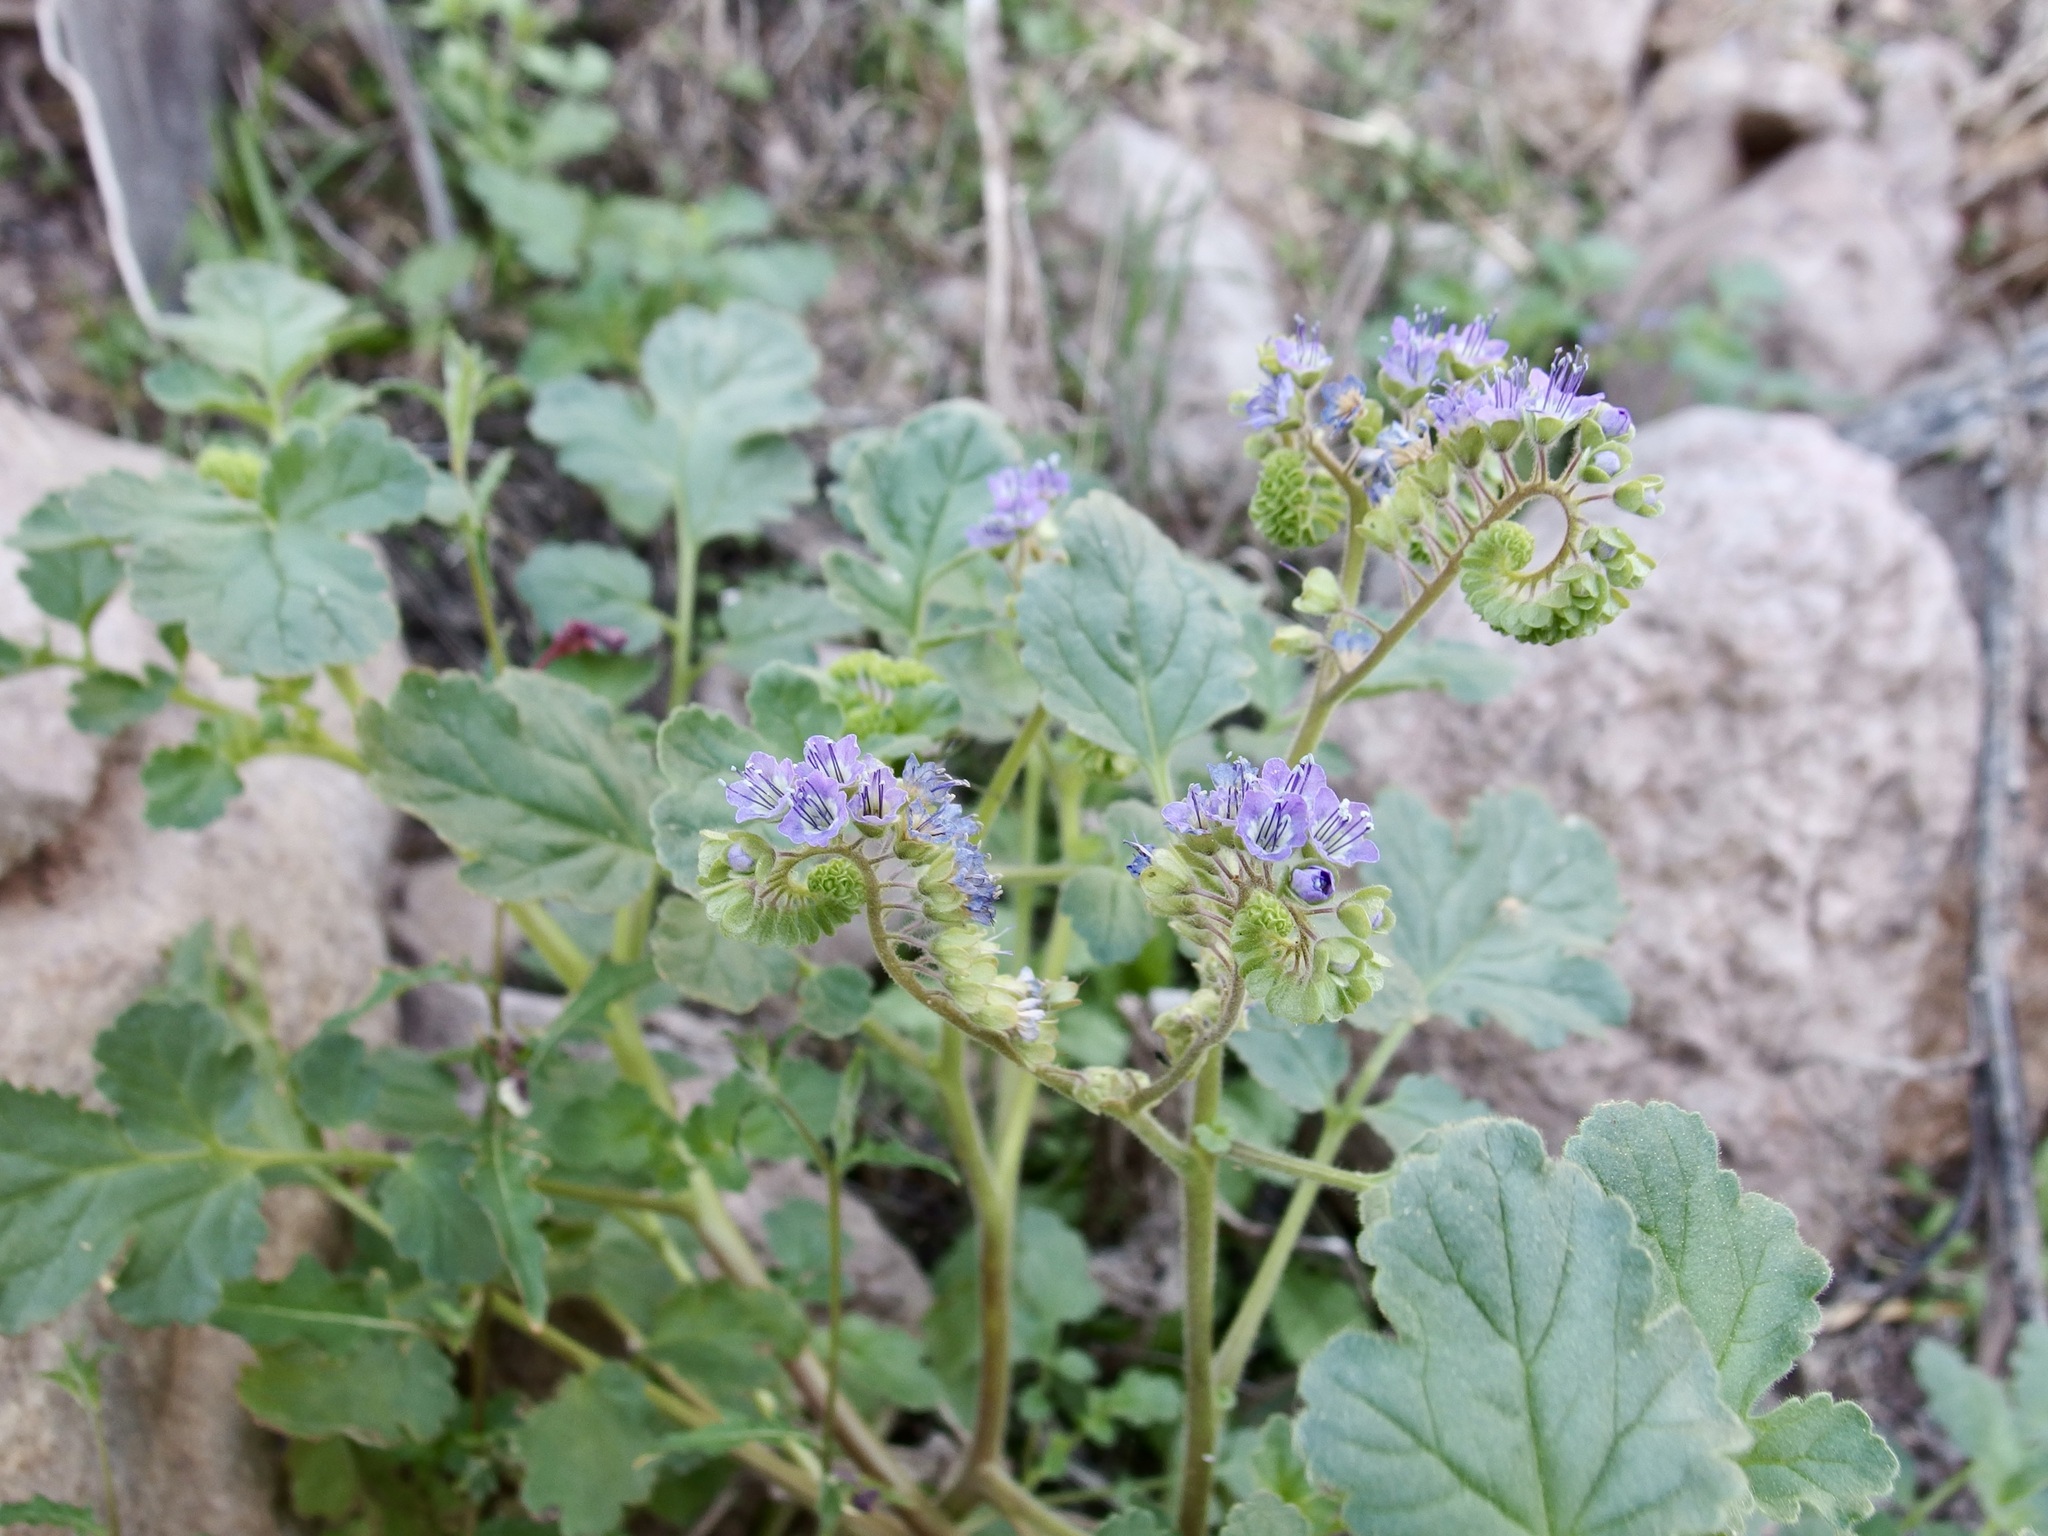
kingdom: Plantae
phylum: Tracheophyta
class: Magnoliopsida
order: Boraginales
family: Hydrophyllaceae
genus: Phacelia
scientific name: Phacelia scariosa
